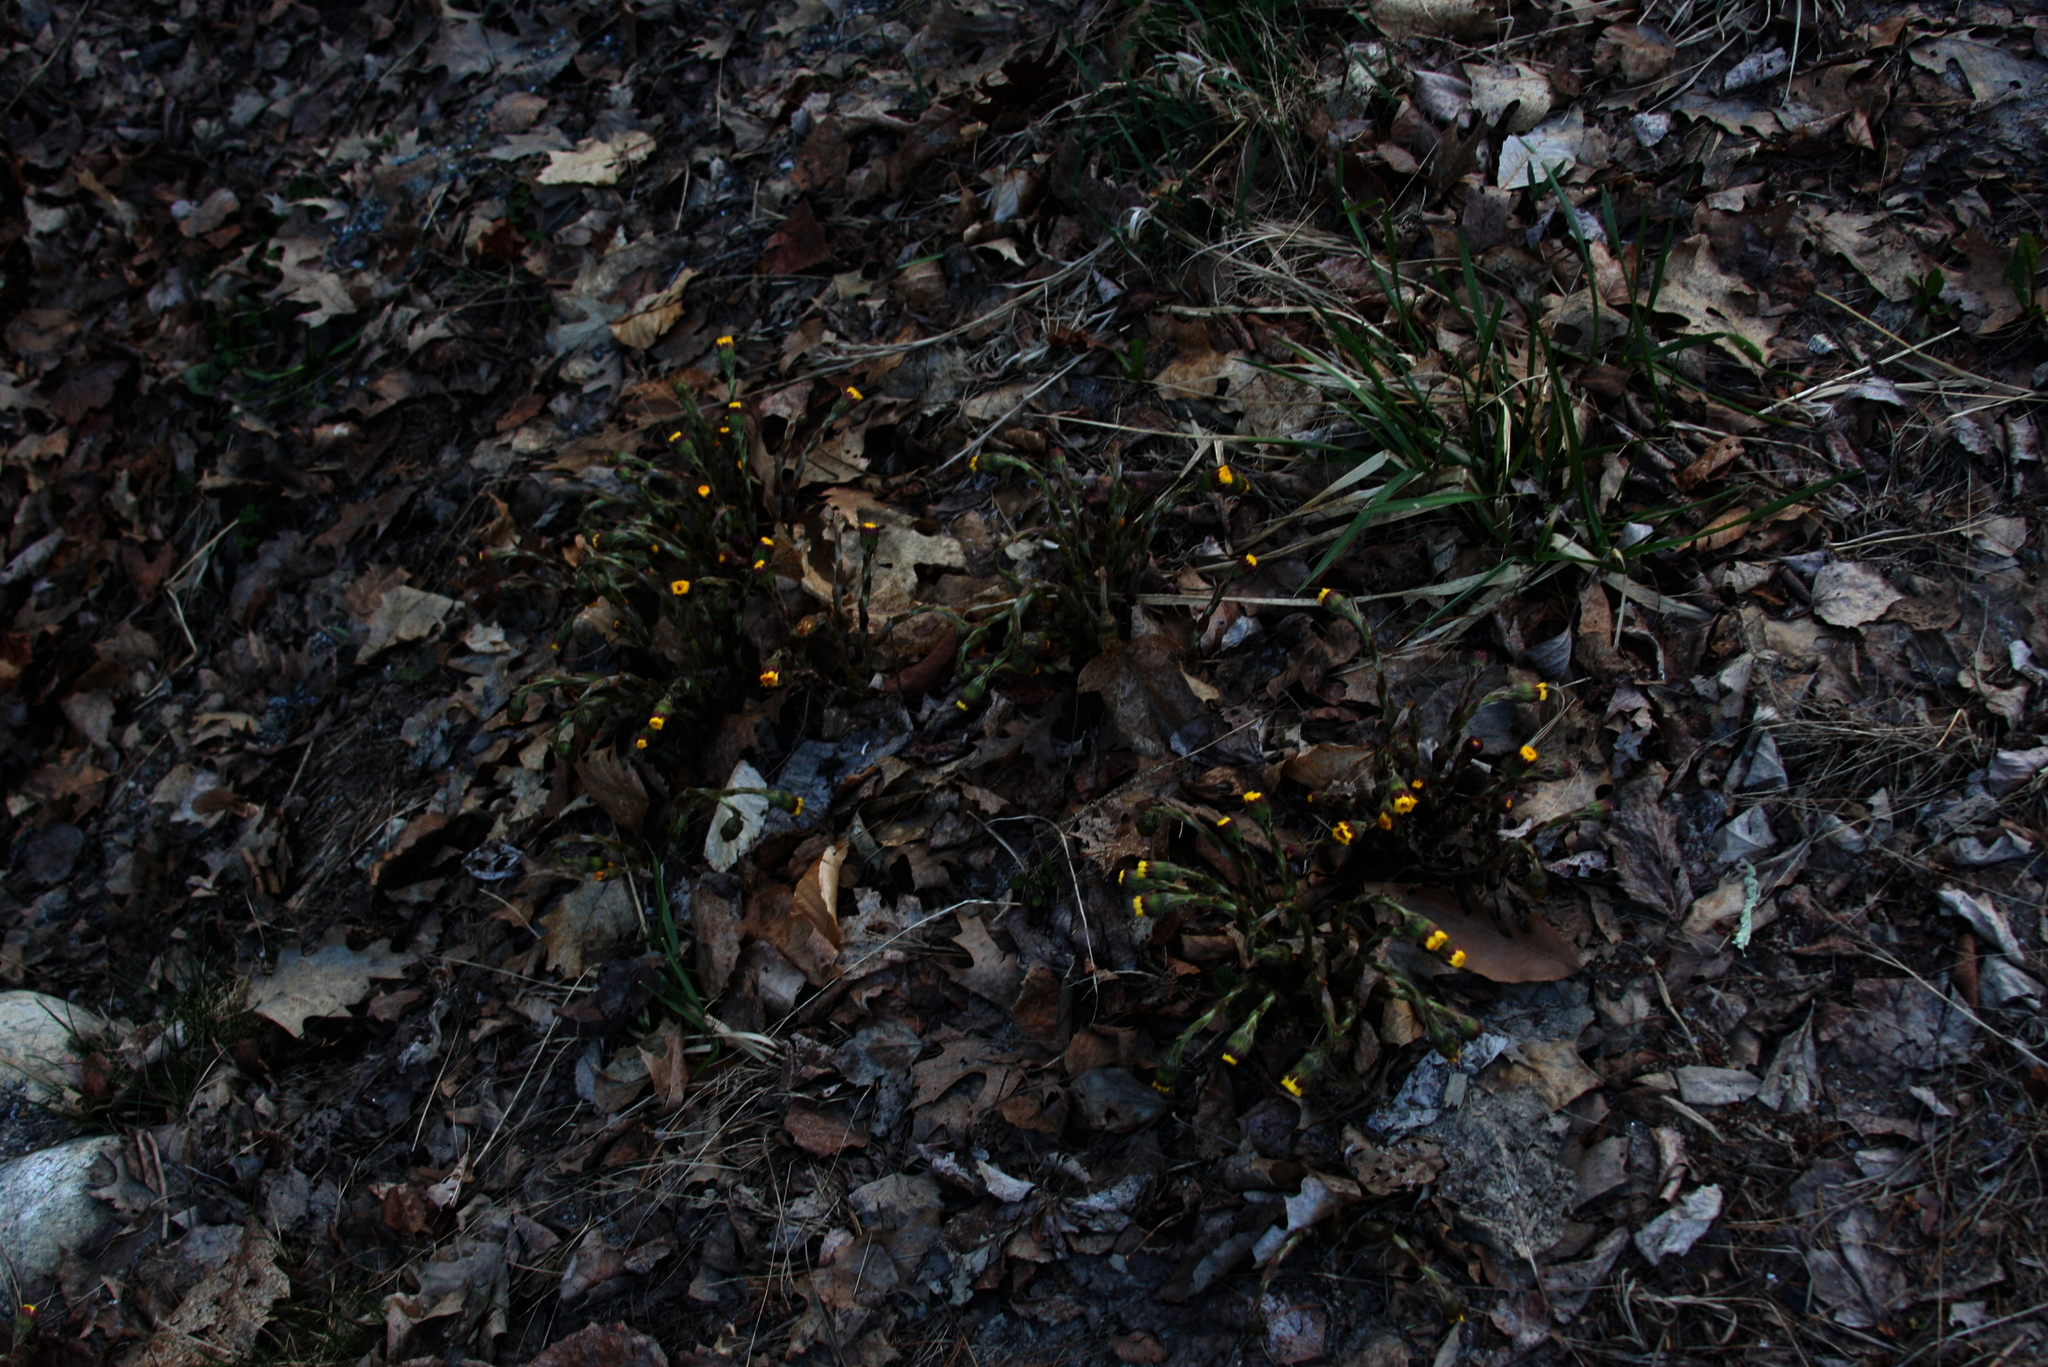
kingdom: Plantae
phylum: Tracheophyta
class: Magnoliopsida
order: Asterales
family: Asteraceae
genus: Tussilago
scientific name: Tussilago farfara
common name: Coltsfoot
